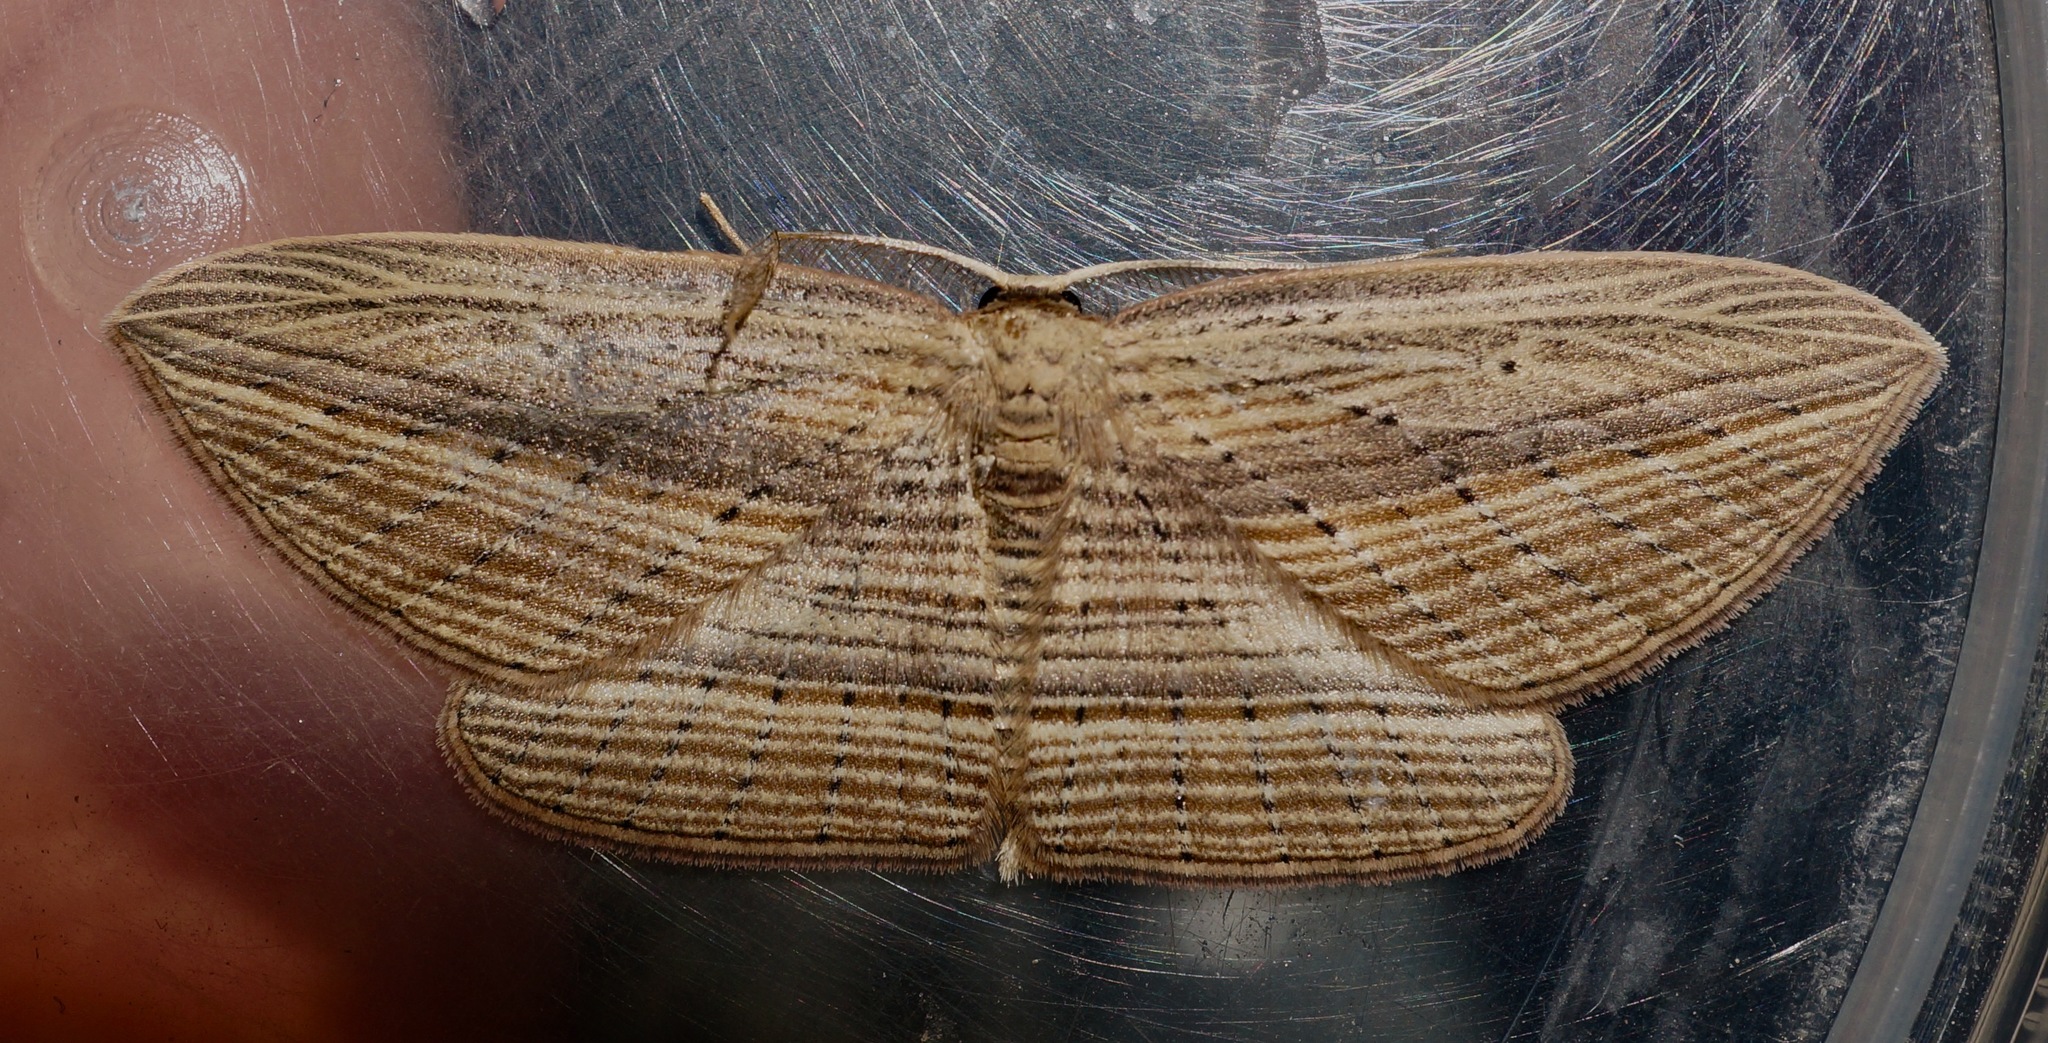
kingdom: Animalia
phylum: Arthropoda
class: Insecta
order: Lepidoptera
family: Geometridae
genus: Epiphryne
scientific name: Epiphryne verriculata
